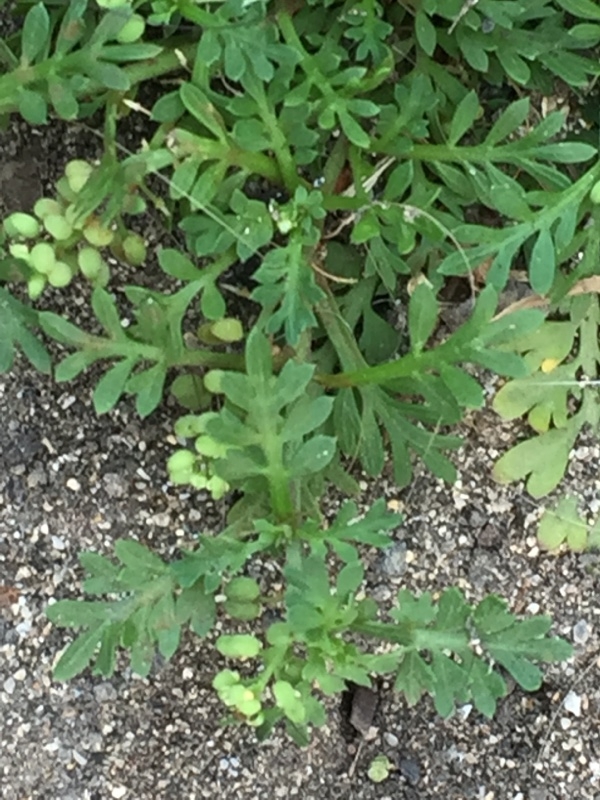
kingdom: Plantae
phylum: Tracheophyta
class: Magnoliopsida
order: Brassicales
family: Brassicaceae
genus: Lepidium
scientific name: Lepidium didymum
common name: Lesser swinecress
